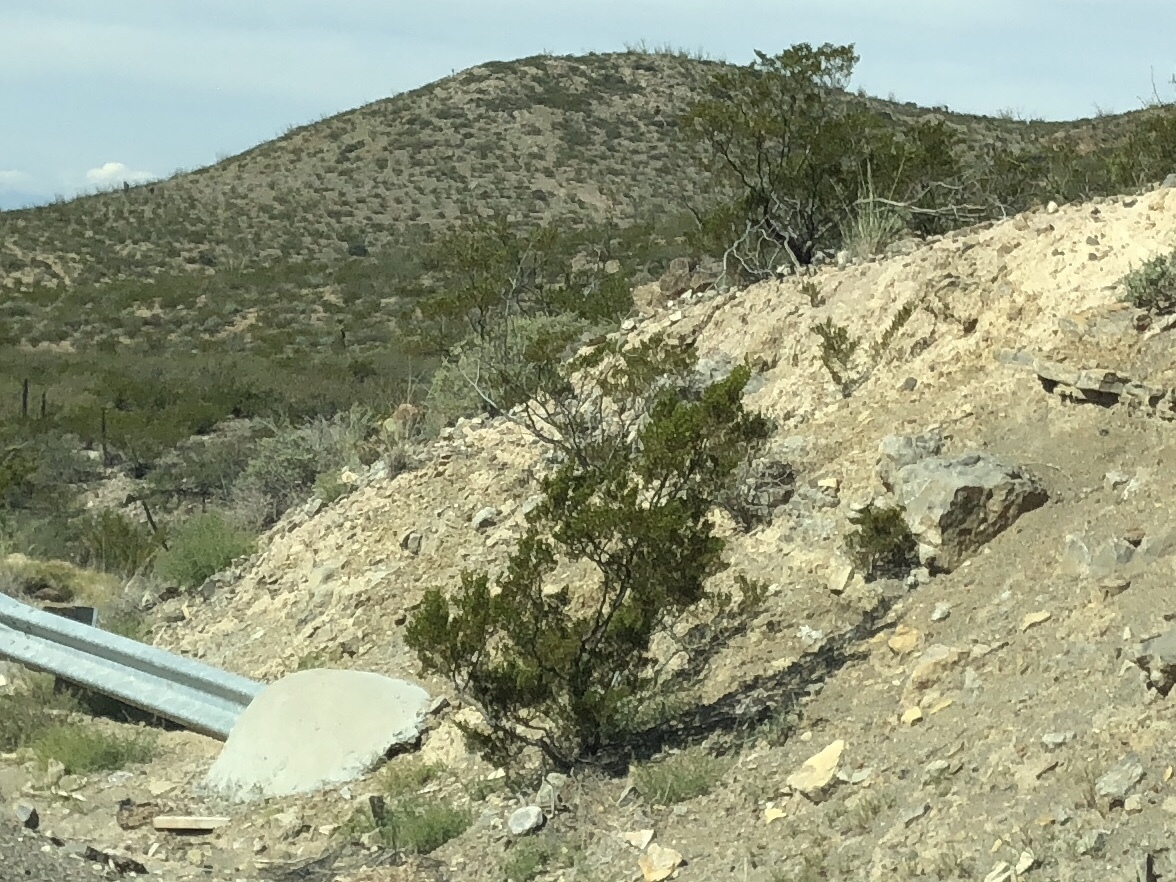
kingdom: Plantae
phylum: Tracheophyta
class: Magnoliopsida
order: Zygophyllales
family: Zygophyllaceae
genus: Larrea
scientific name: Larrea tridentata
